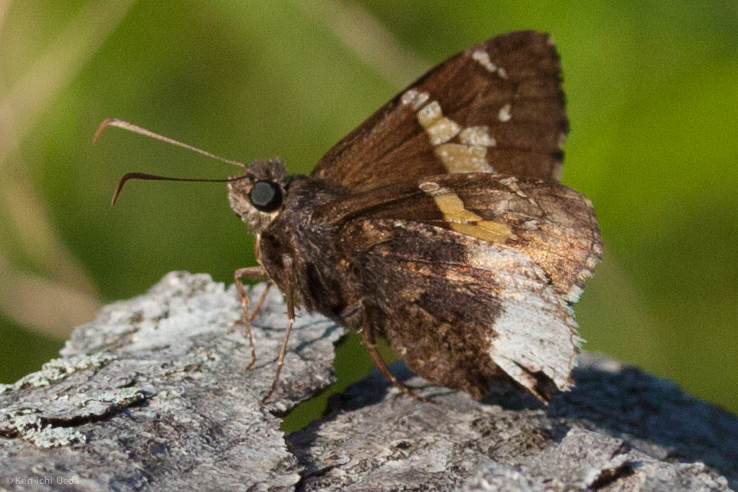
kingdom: Animalia
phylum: Arthropoda
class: Insecta
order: Lepidoptera
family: Hesperiidae
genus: Thorybes
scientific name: Thorybes lyciades
